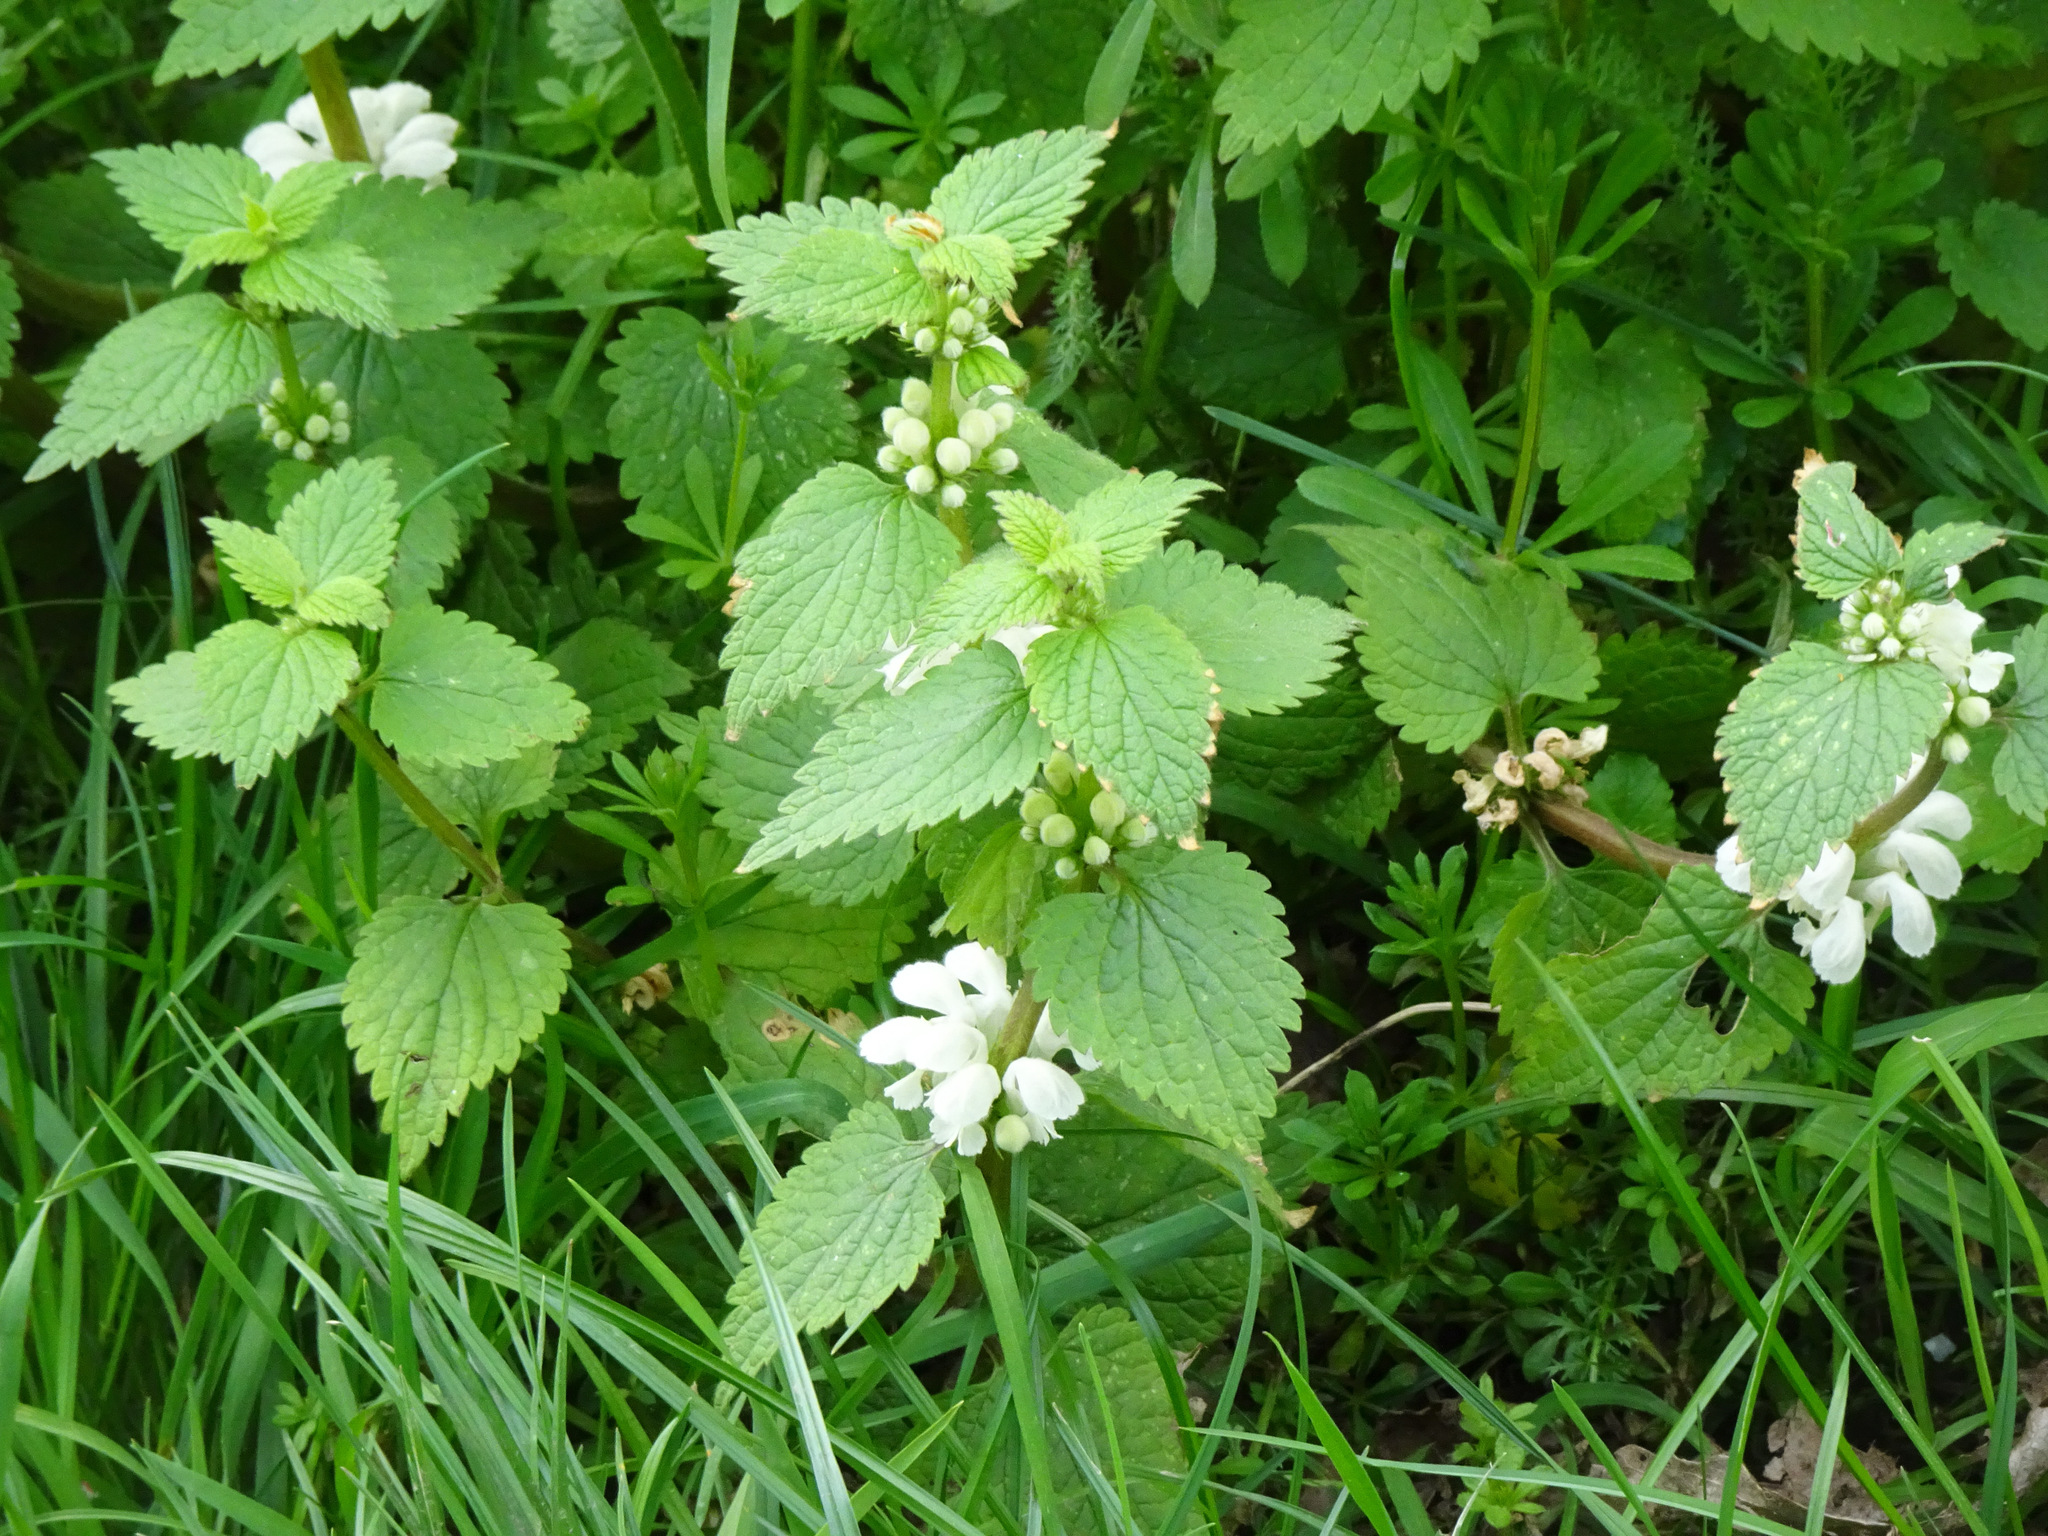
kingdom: Plantae
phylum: Tracheophyta
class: Magnoliopsida
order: Lamiales
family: Lamiaceae
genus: Lamium
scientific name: Lamium album
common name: White dead-nettle
